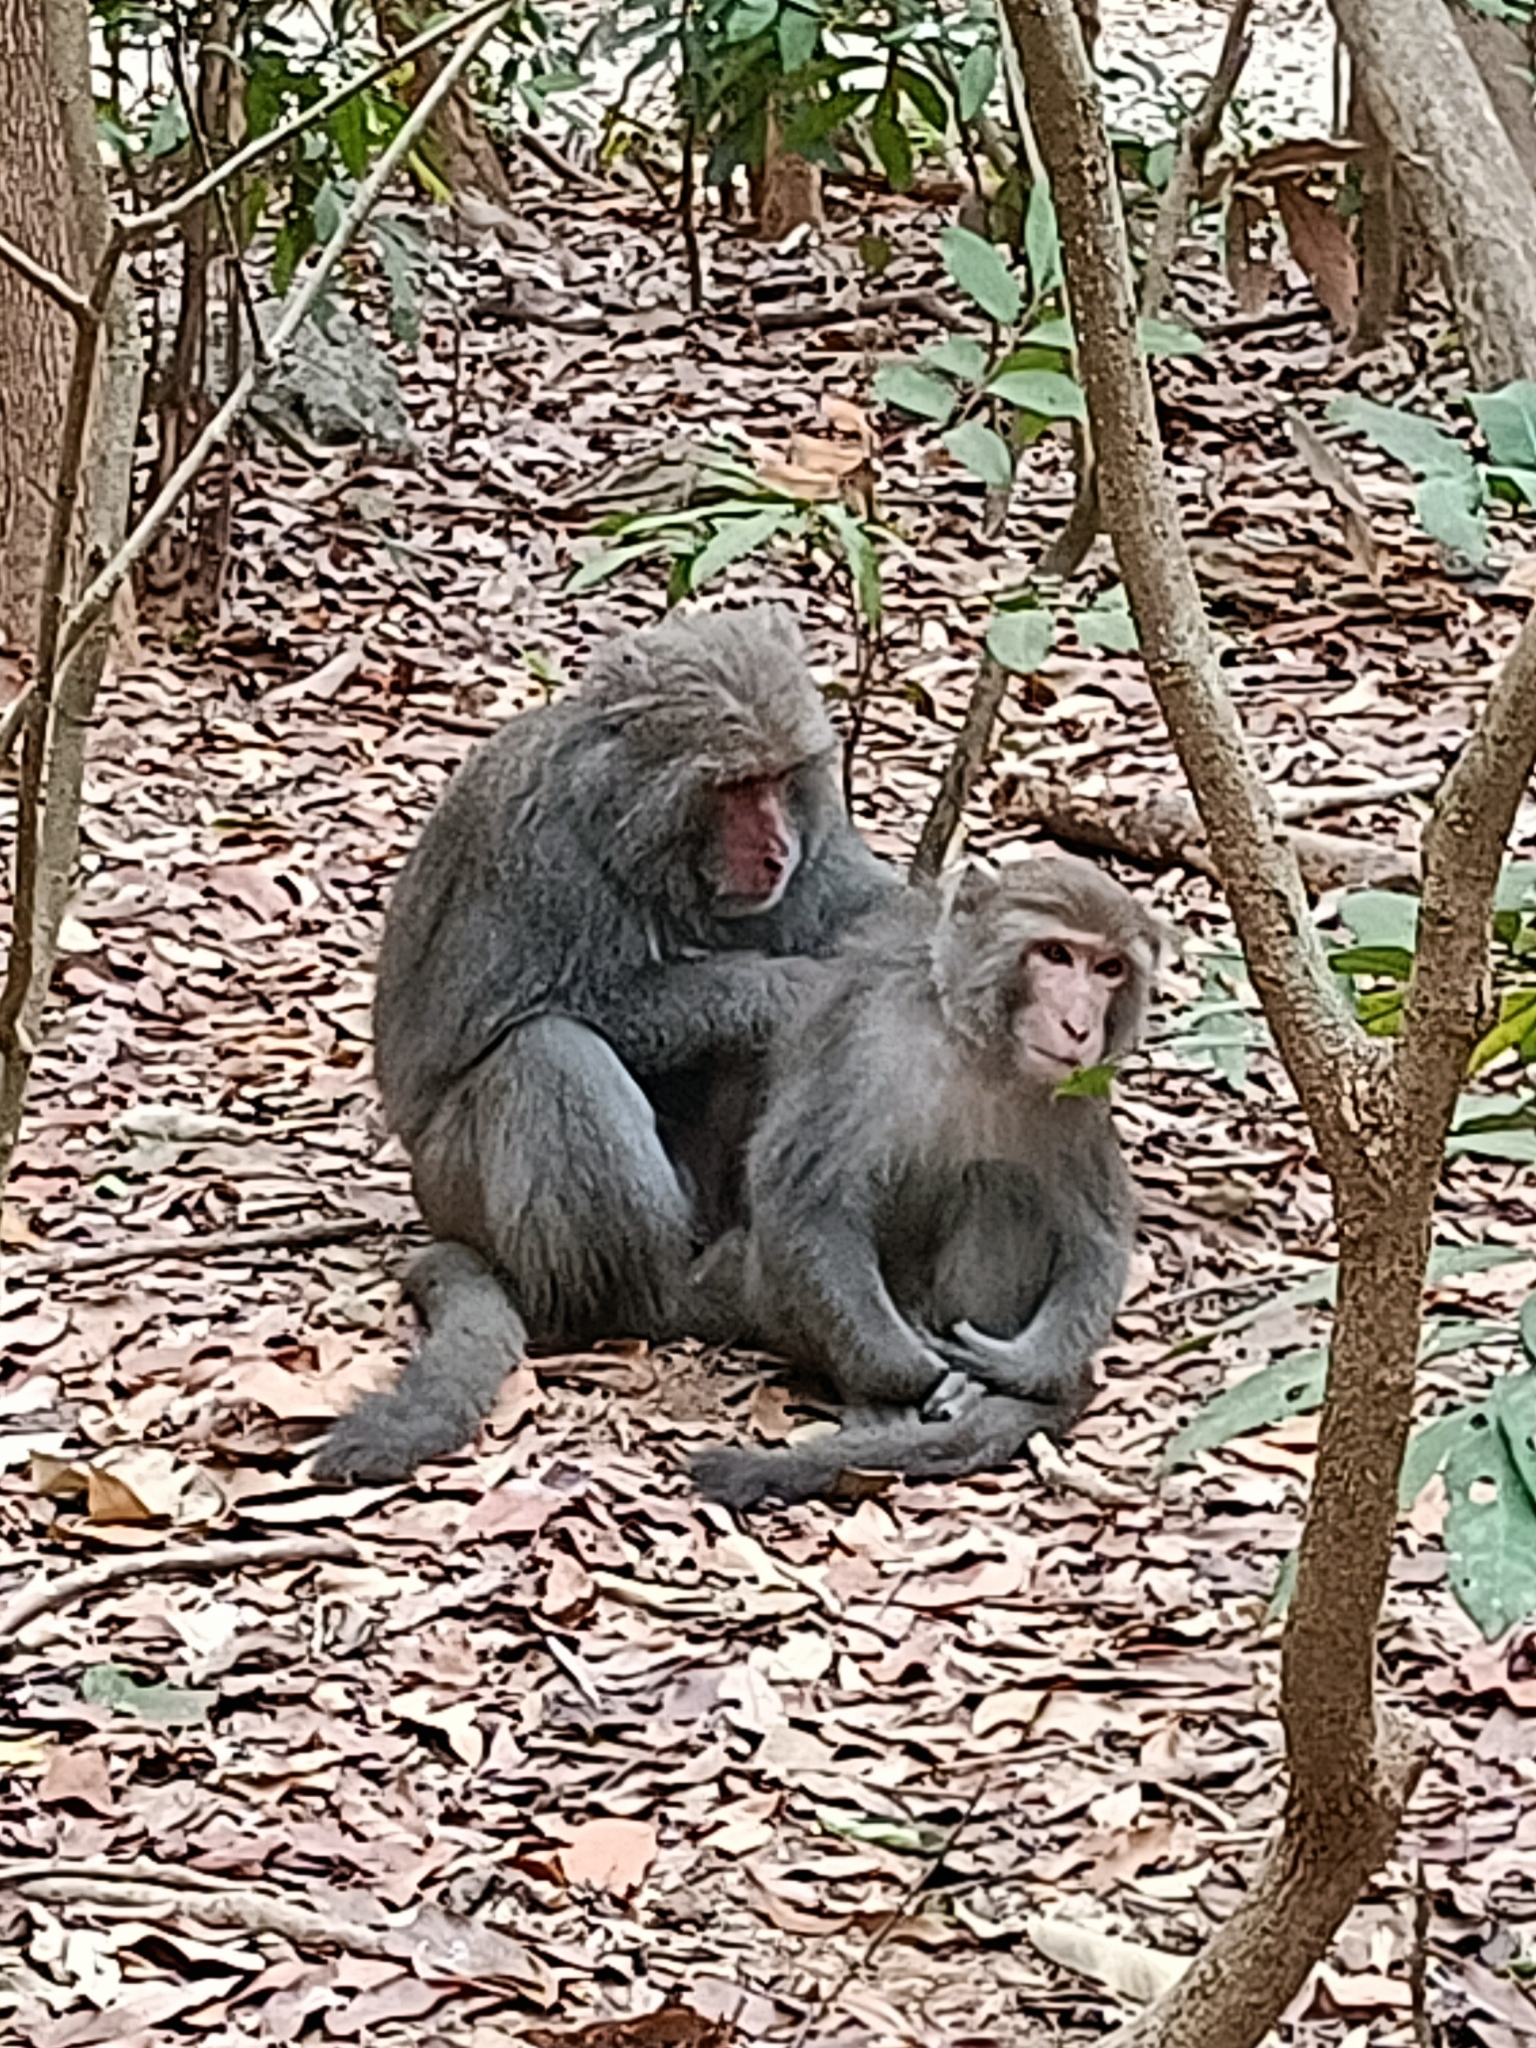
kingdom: Animalia
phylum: Chordata
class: Mammalia
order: Primates
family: Cercopithecidae
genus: Macaca
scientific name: Macaca cyclopis
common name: Formosan rock macaque
